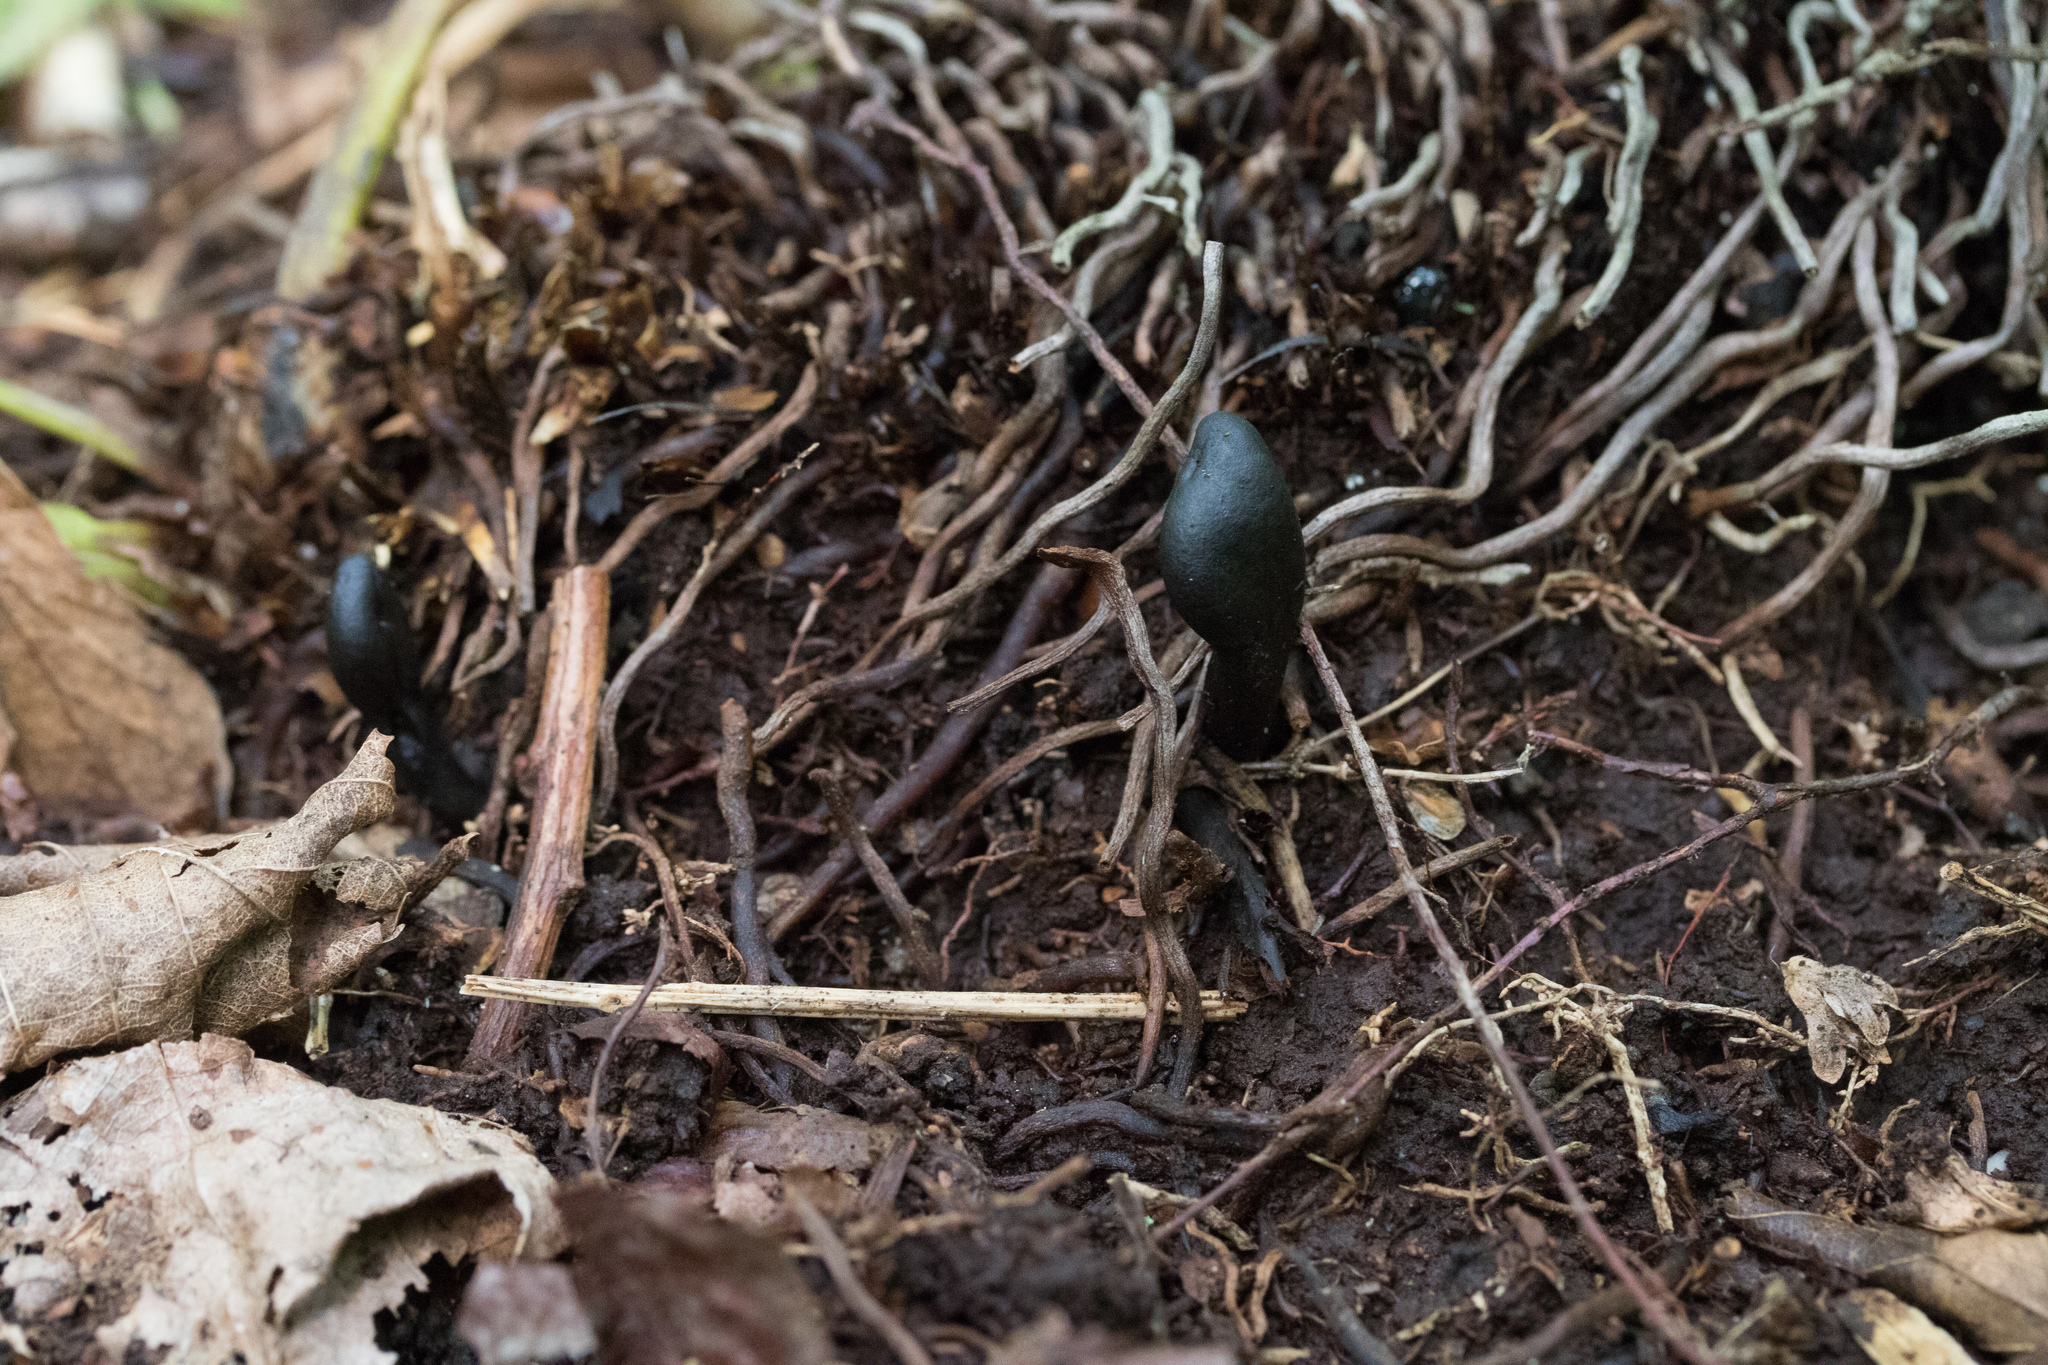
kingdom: Fungi
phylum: Ascomycota
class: Geoglossomycetes
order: Geoglossales
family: Geoglossaceae
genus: Trichoglossum
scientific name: Trichoglossum hirsutum
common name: Hairy earthtongue
